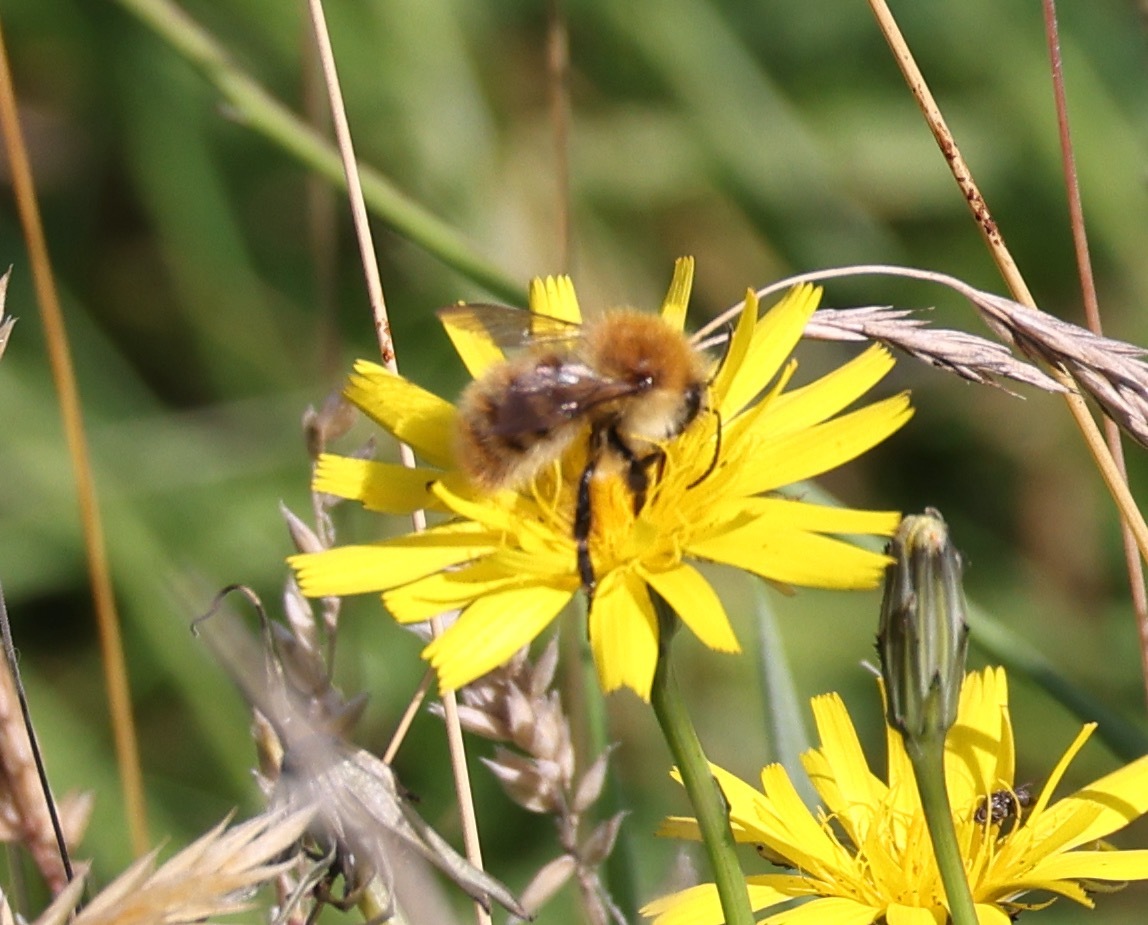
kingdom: Animalia
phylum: Arthropoda
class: Insecta
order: Hymenoptera
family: Apidae
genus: Bombus
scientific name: Bombus pascuorum
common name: Common carder bee
